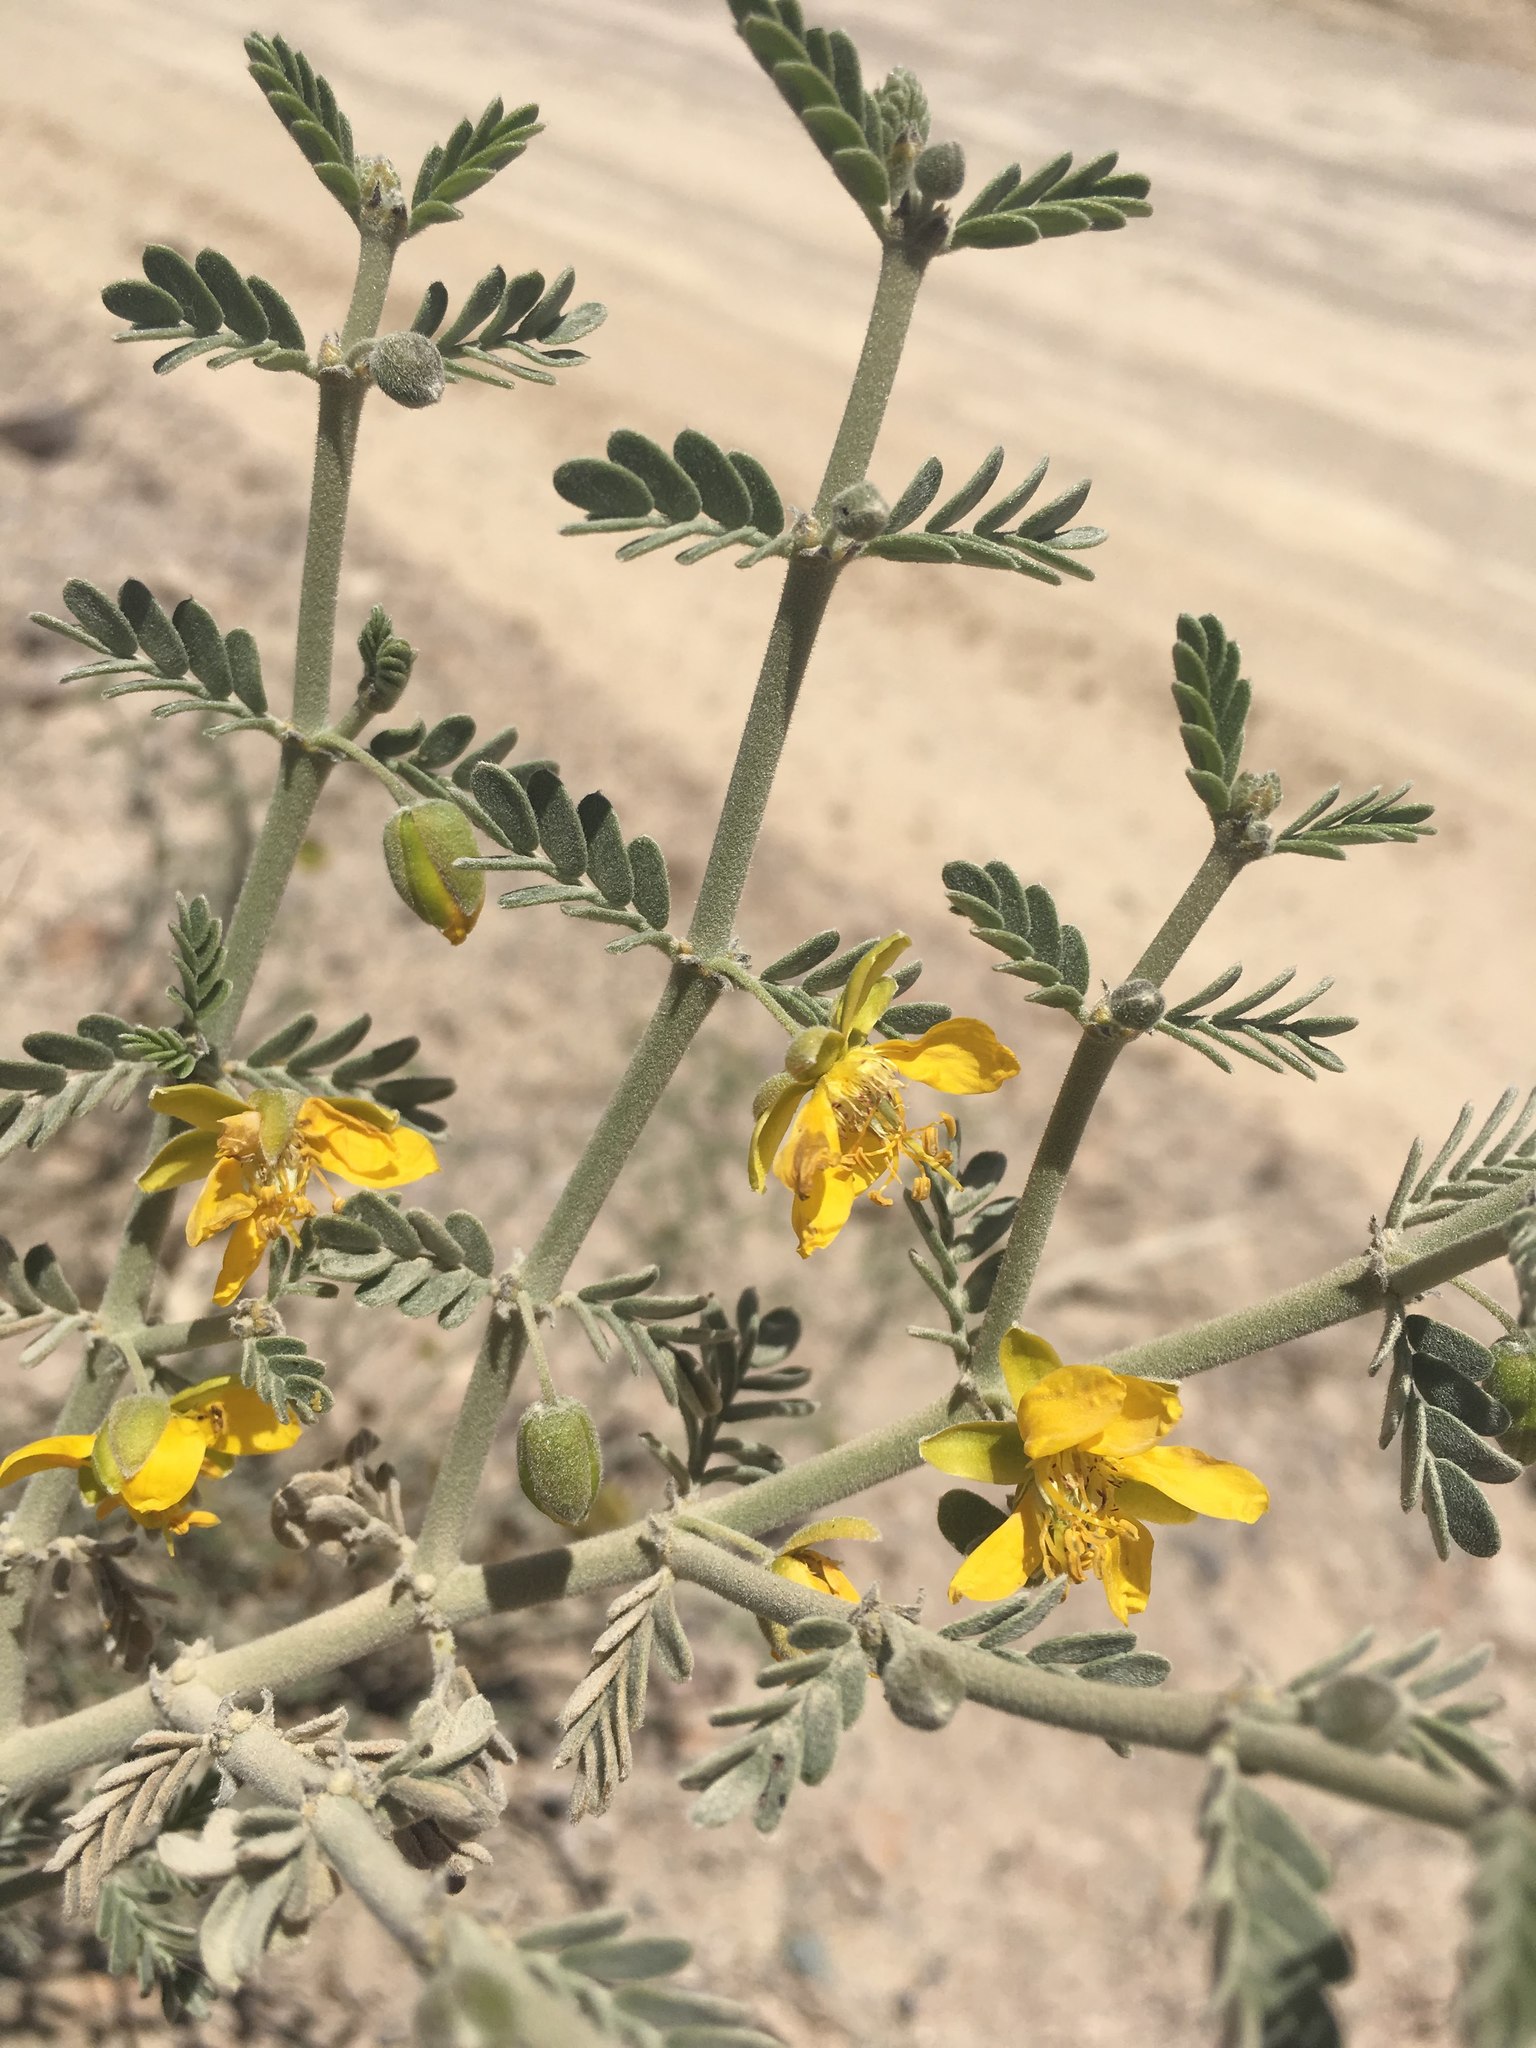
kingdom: Plantae
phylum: Tracheophyta
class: Magnoliopsida
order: Zygophyllales
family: Zygophyllaceae
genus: Bulnesia
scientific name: Bulnesia chilensis
